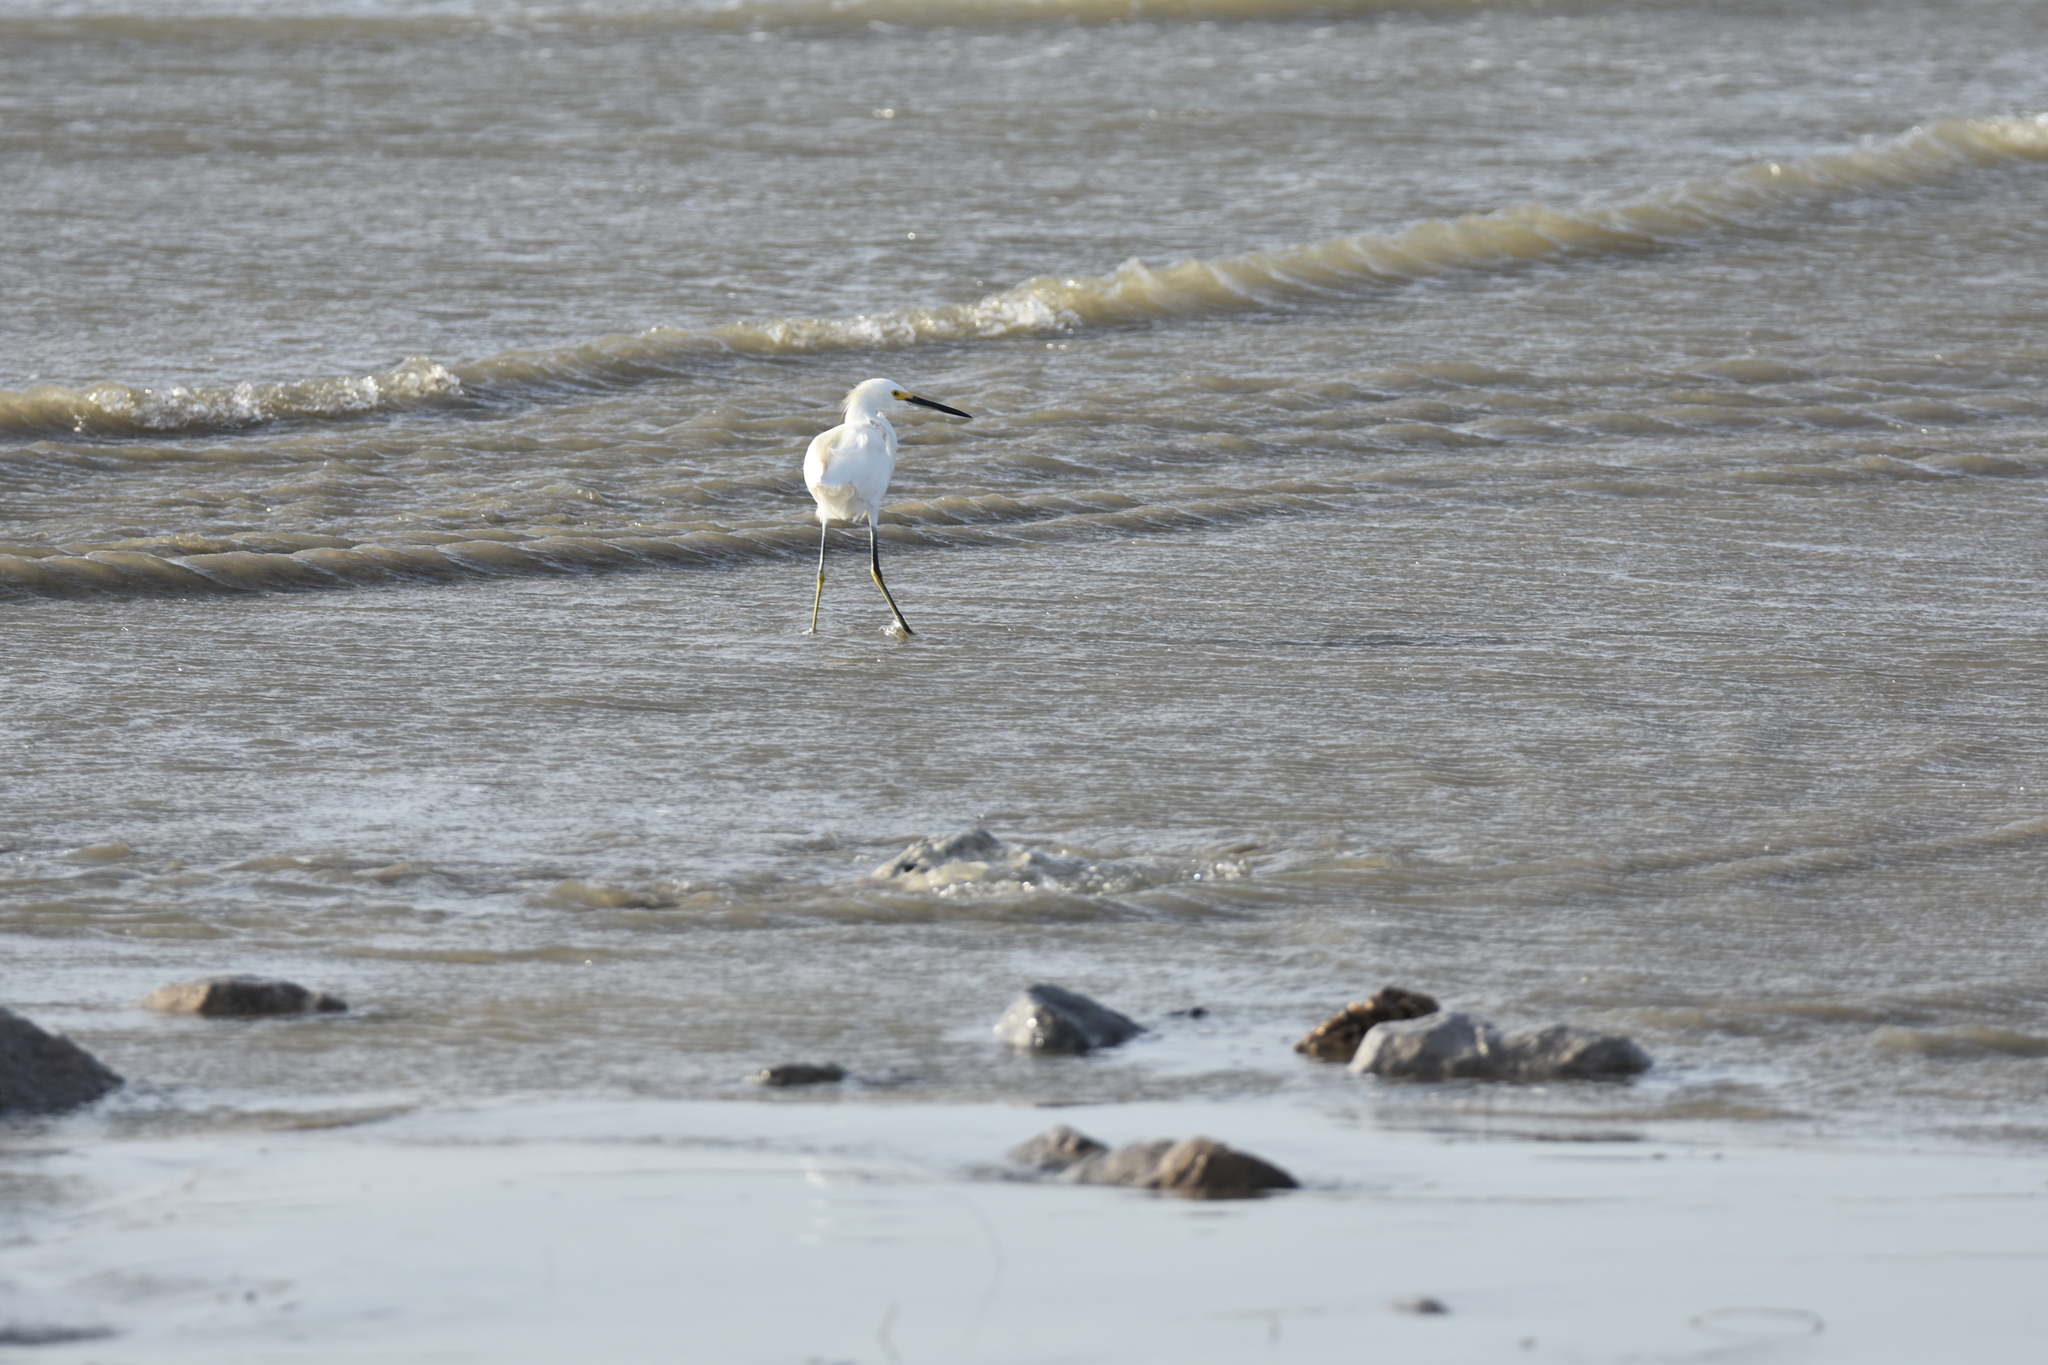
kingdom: Animalia
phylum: Chordata
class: Aves
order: Pelecaniformes
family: Ardeidae
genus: Egretta
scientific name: Egretta thula
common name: Snowy egret
